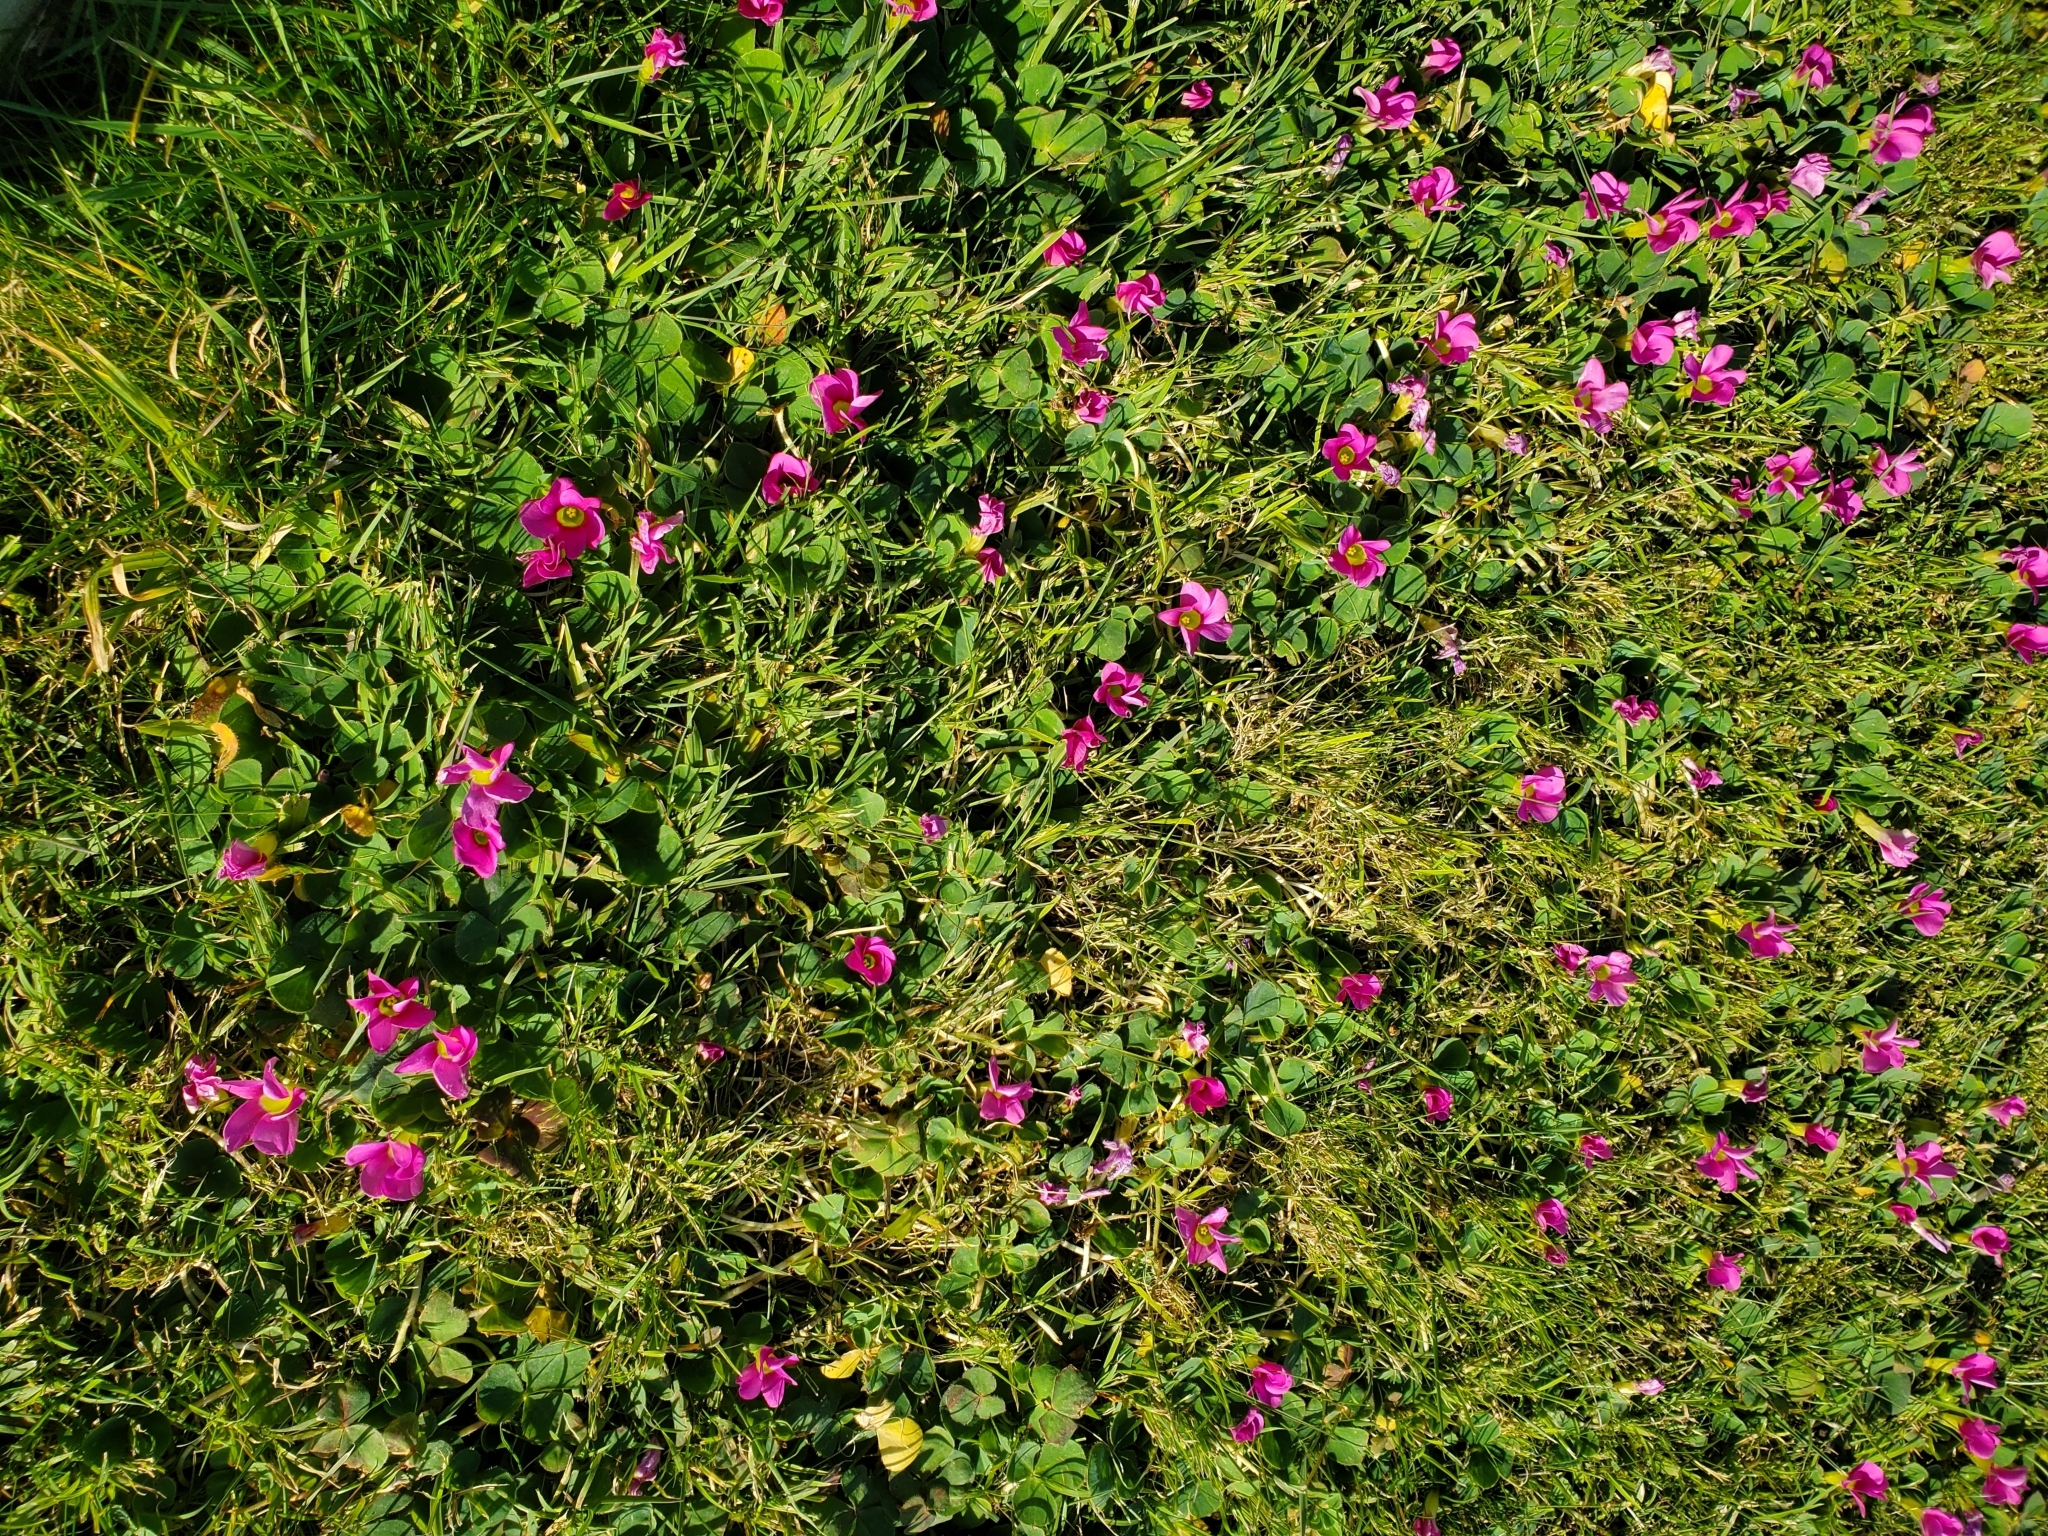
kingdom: Plantae
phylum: Tracheophyta
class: Magnoliopsida
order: Oxalidales
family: Oxalidaceae
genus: Oxalis
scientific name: Oxalis purpurea
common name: Purple woodsorrel
